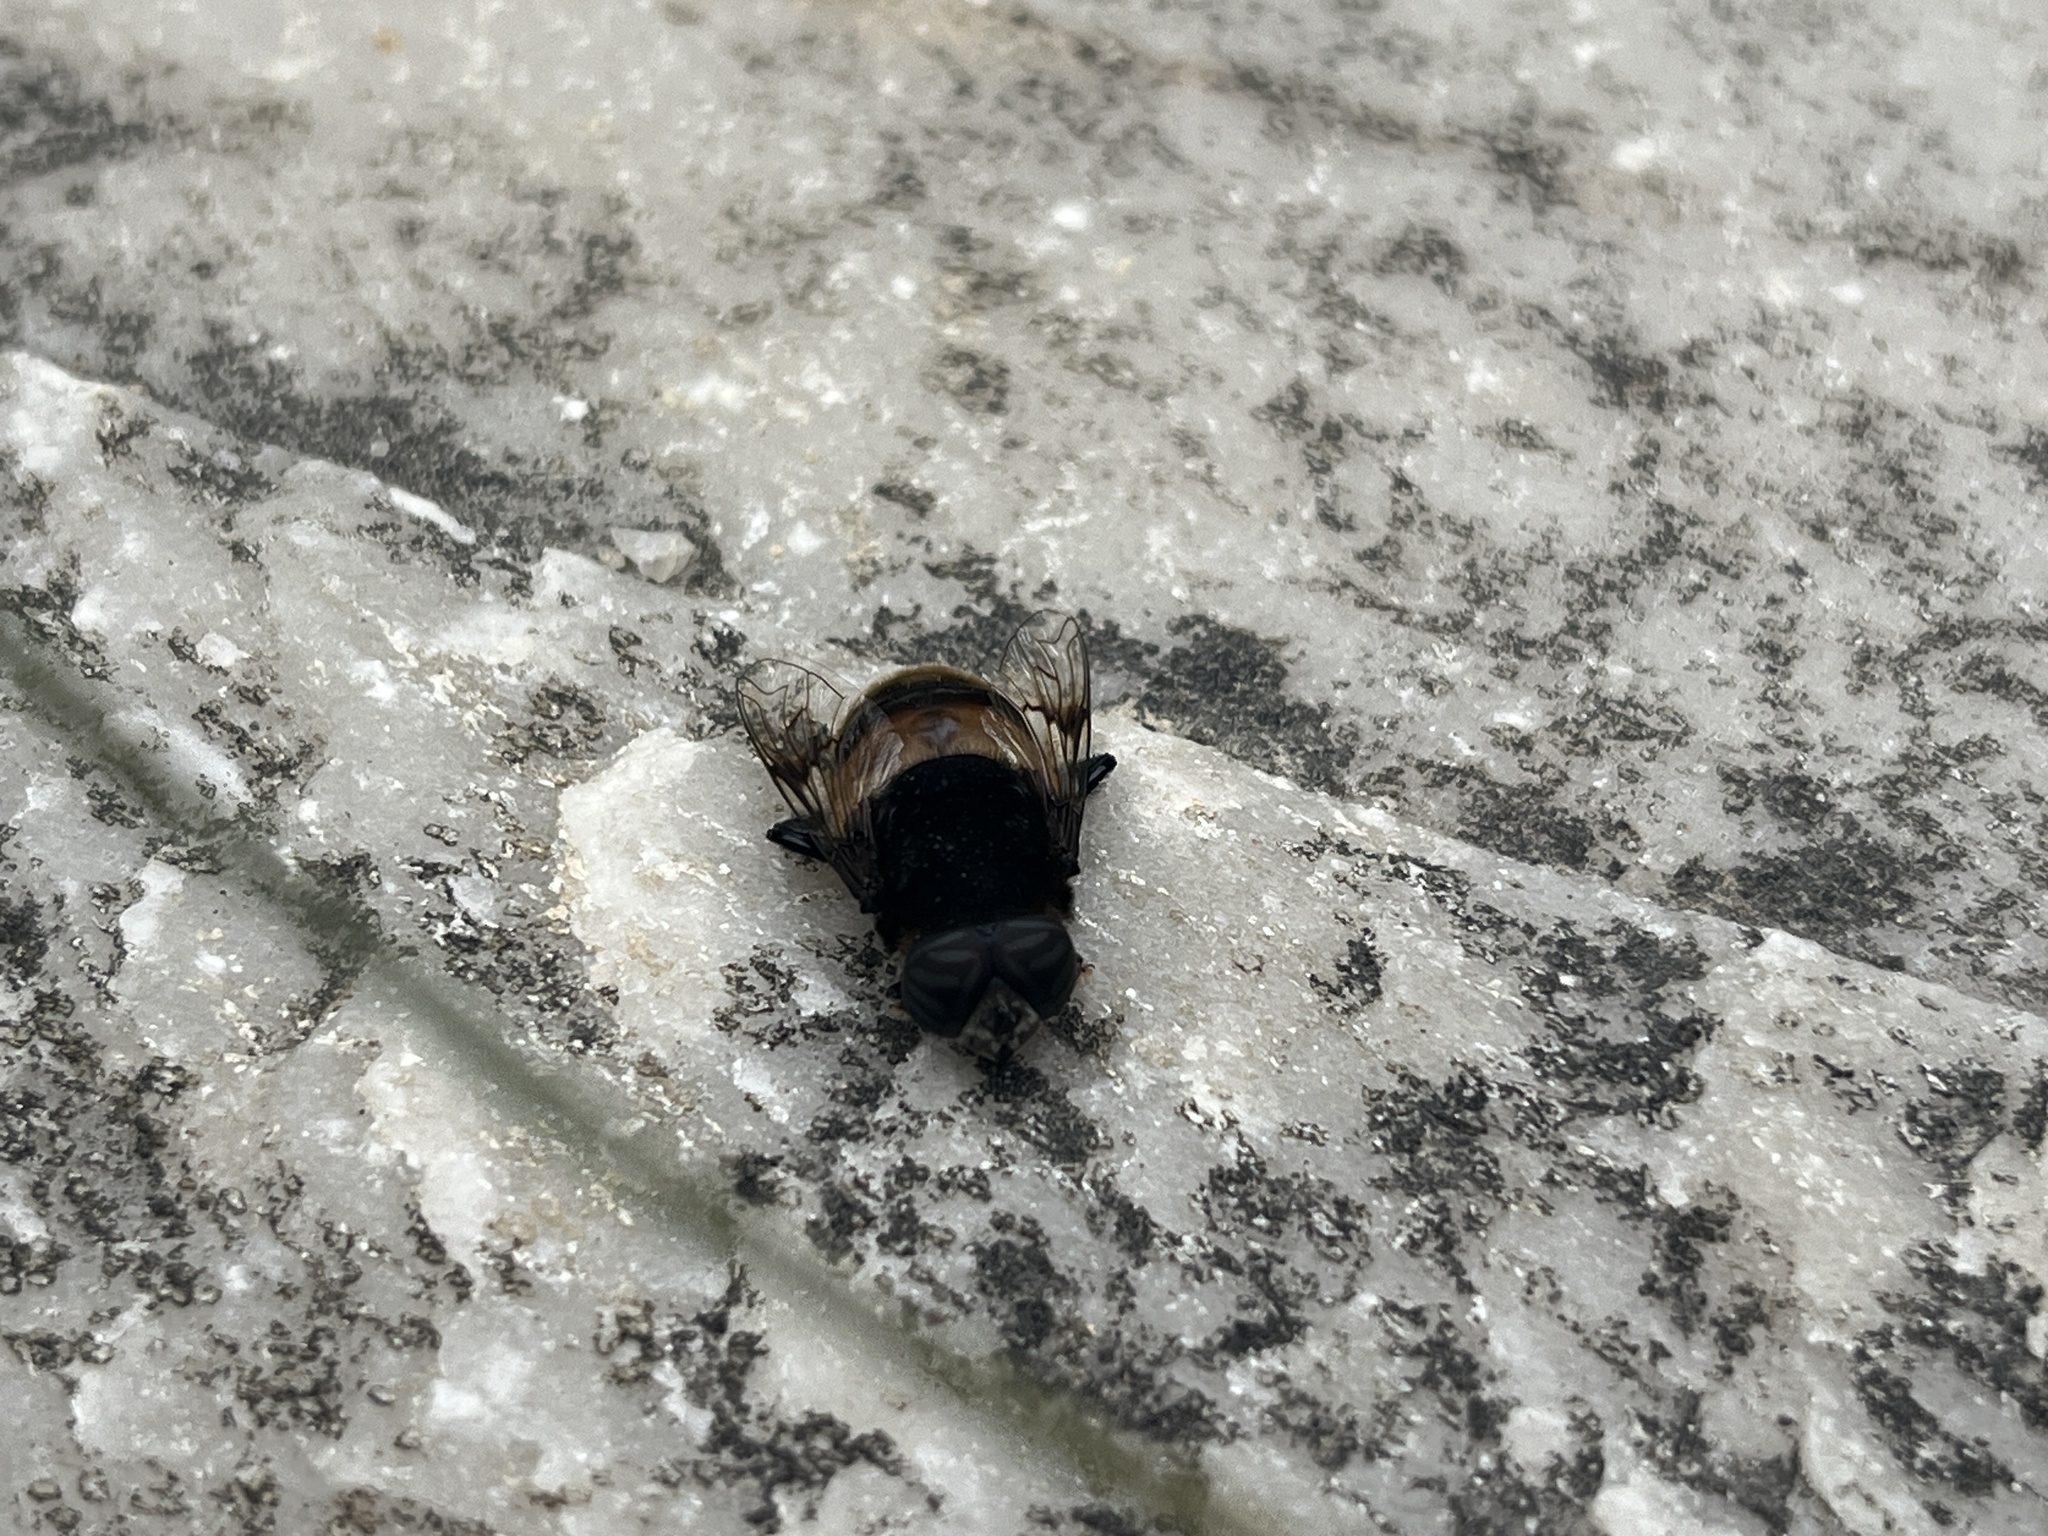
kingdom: Animalia
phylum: Arthropoda
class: Insecta
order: Diptera
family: Syrphidae
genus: Phytomia
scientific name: Phytomia zonata
